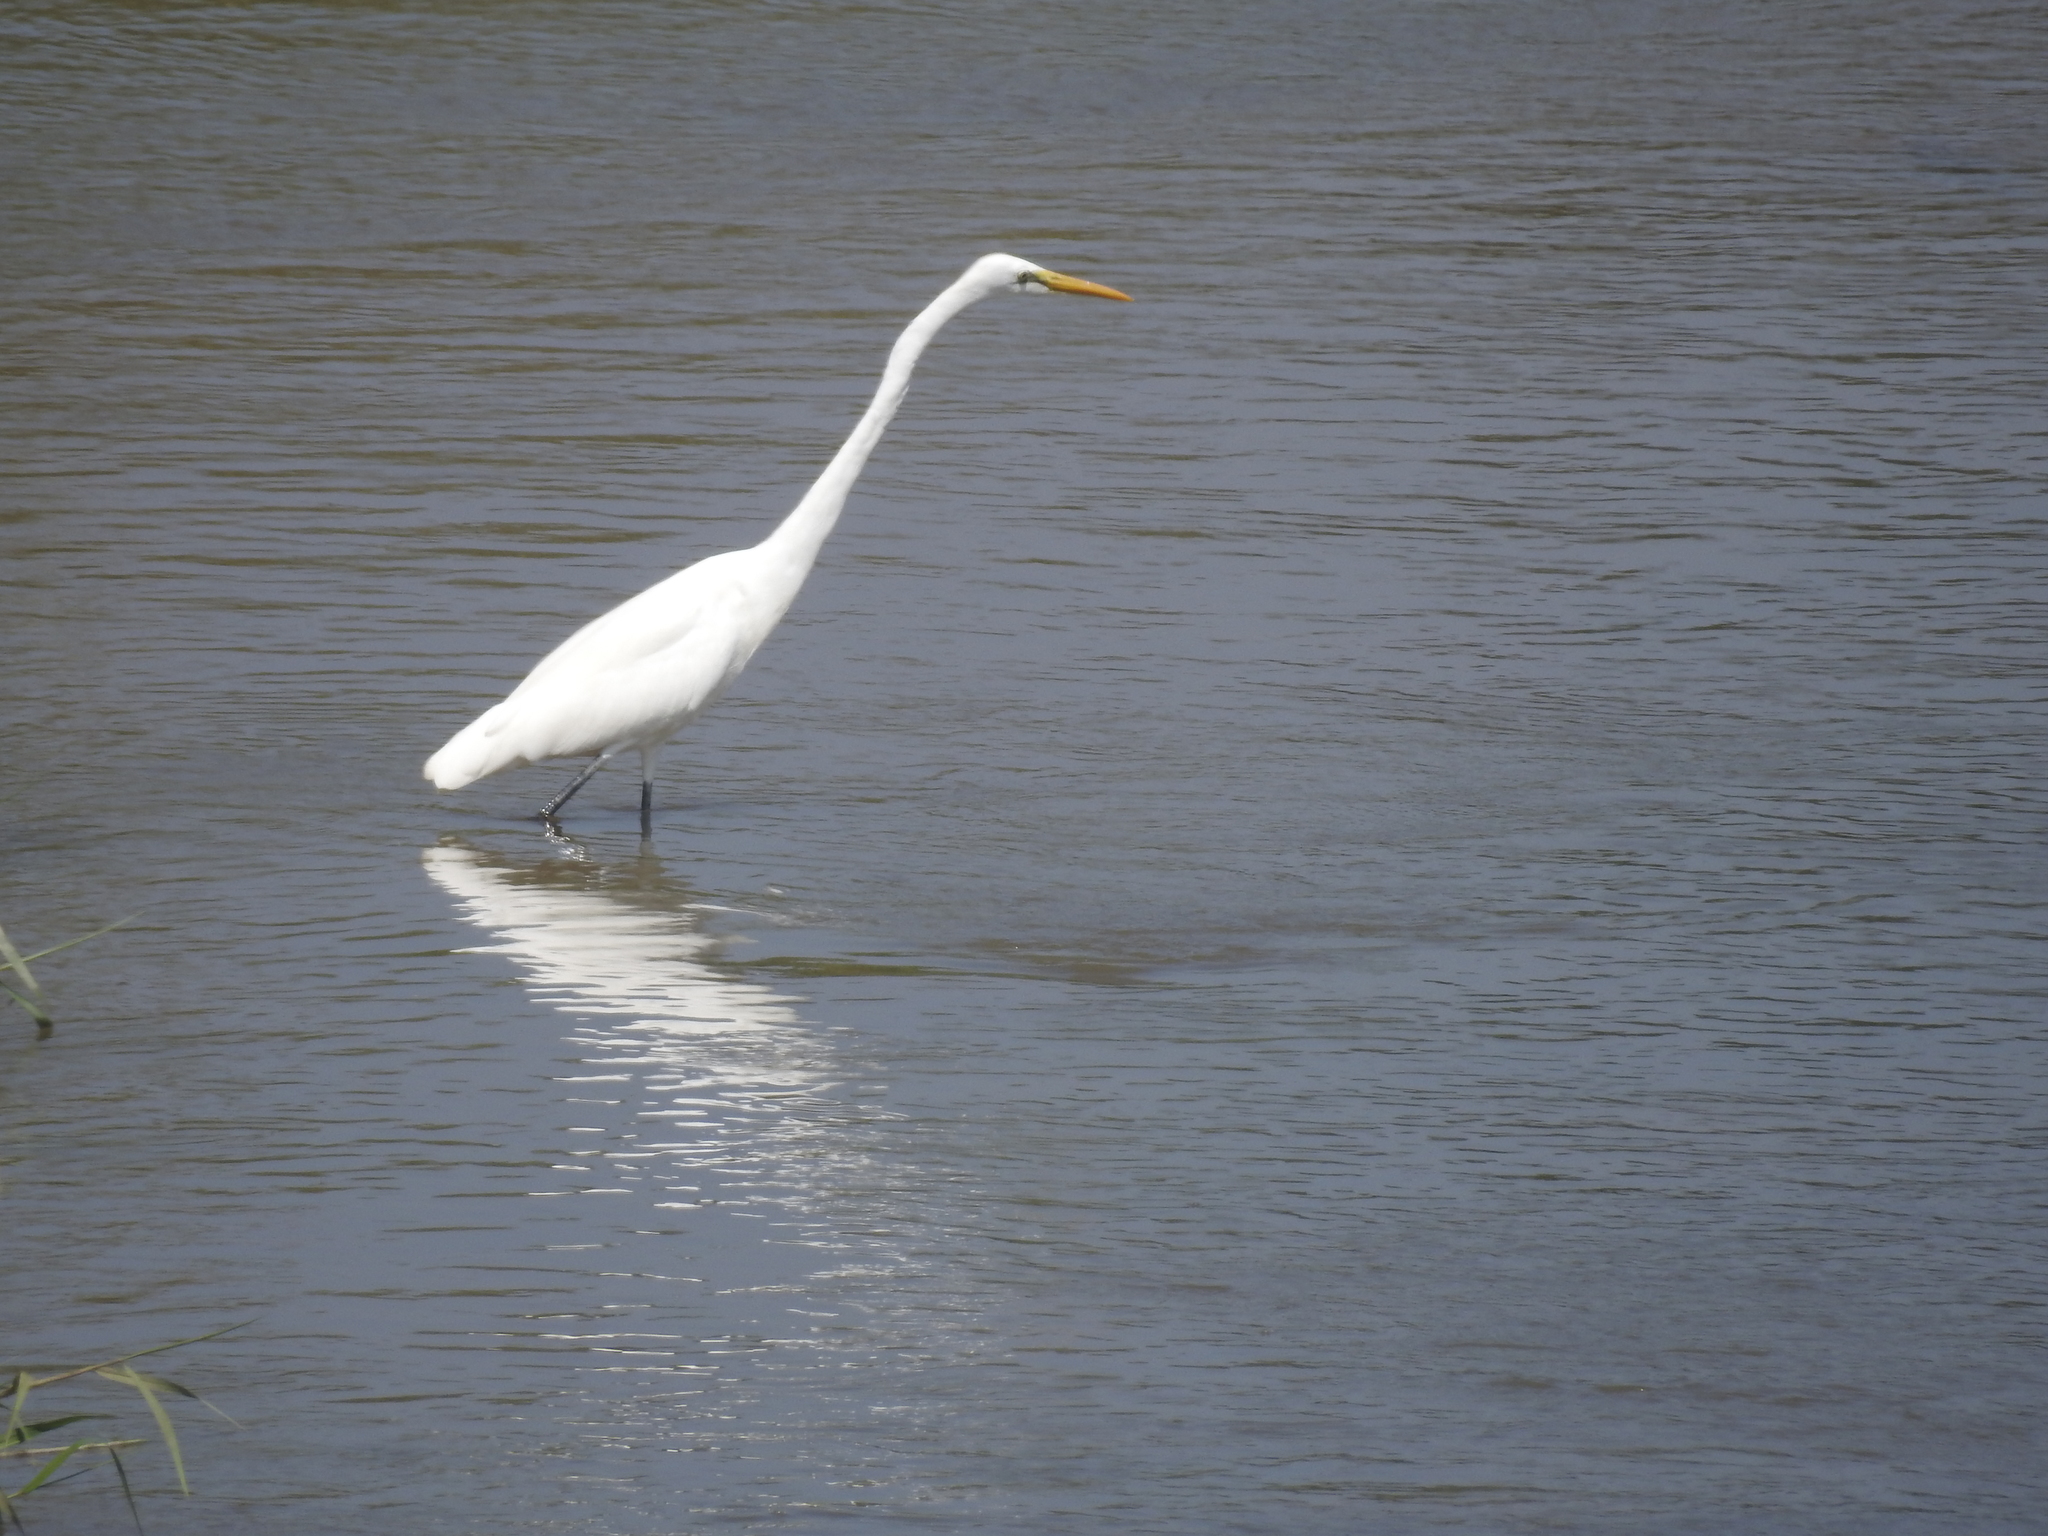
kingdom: Animalia
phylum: Chordata
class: Aves
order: Pelecaniformes
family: Ardeidae
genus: Ardea
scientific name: Ardea alba
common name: Great egret
